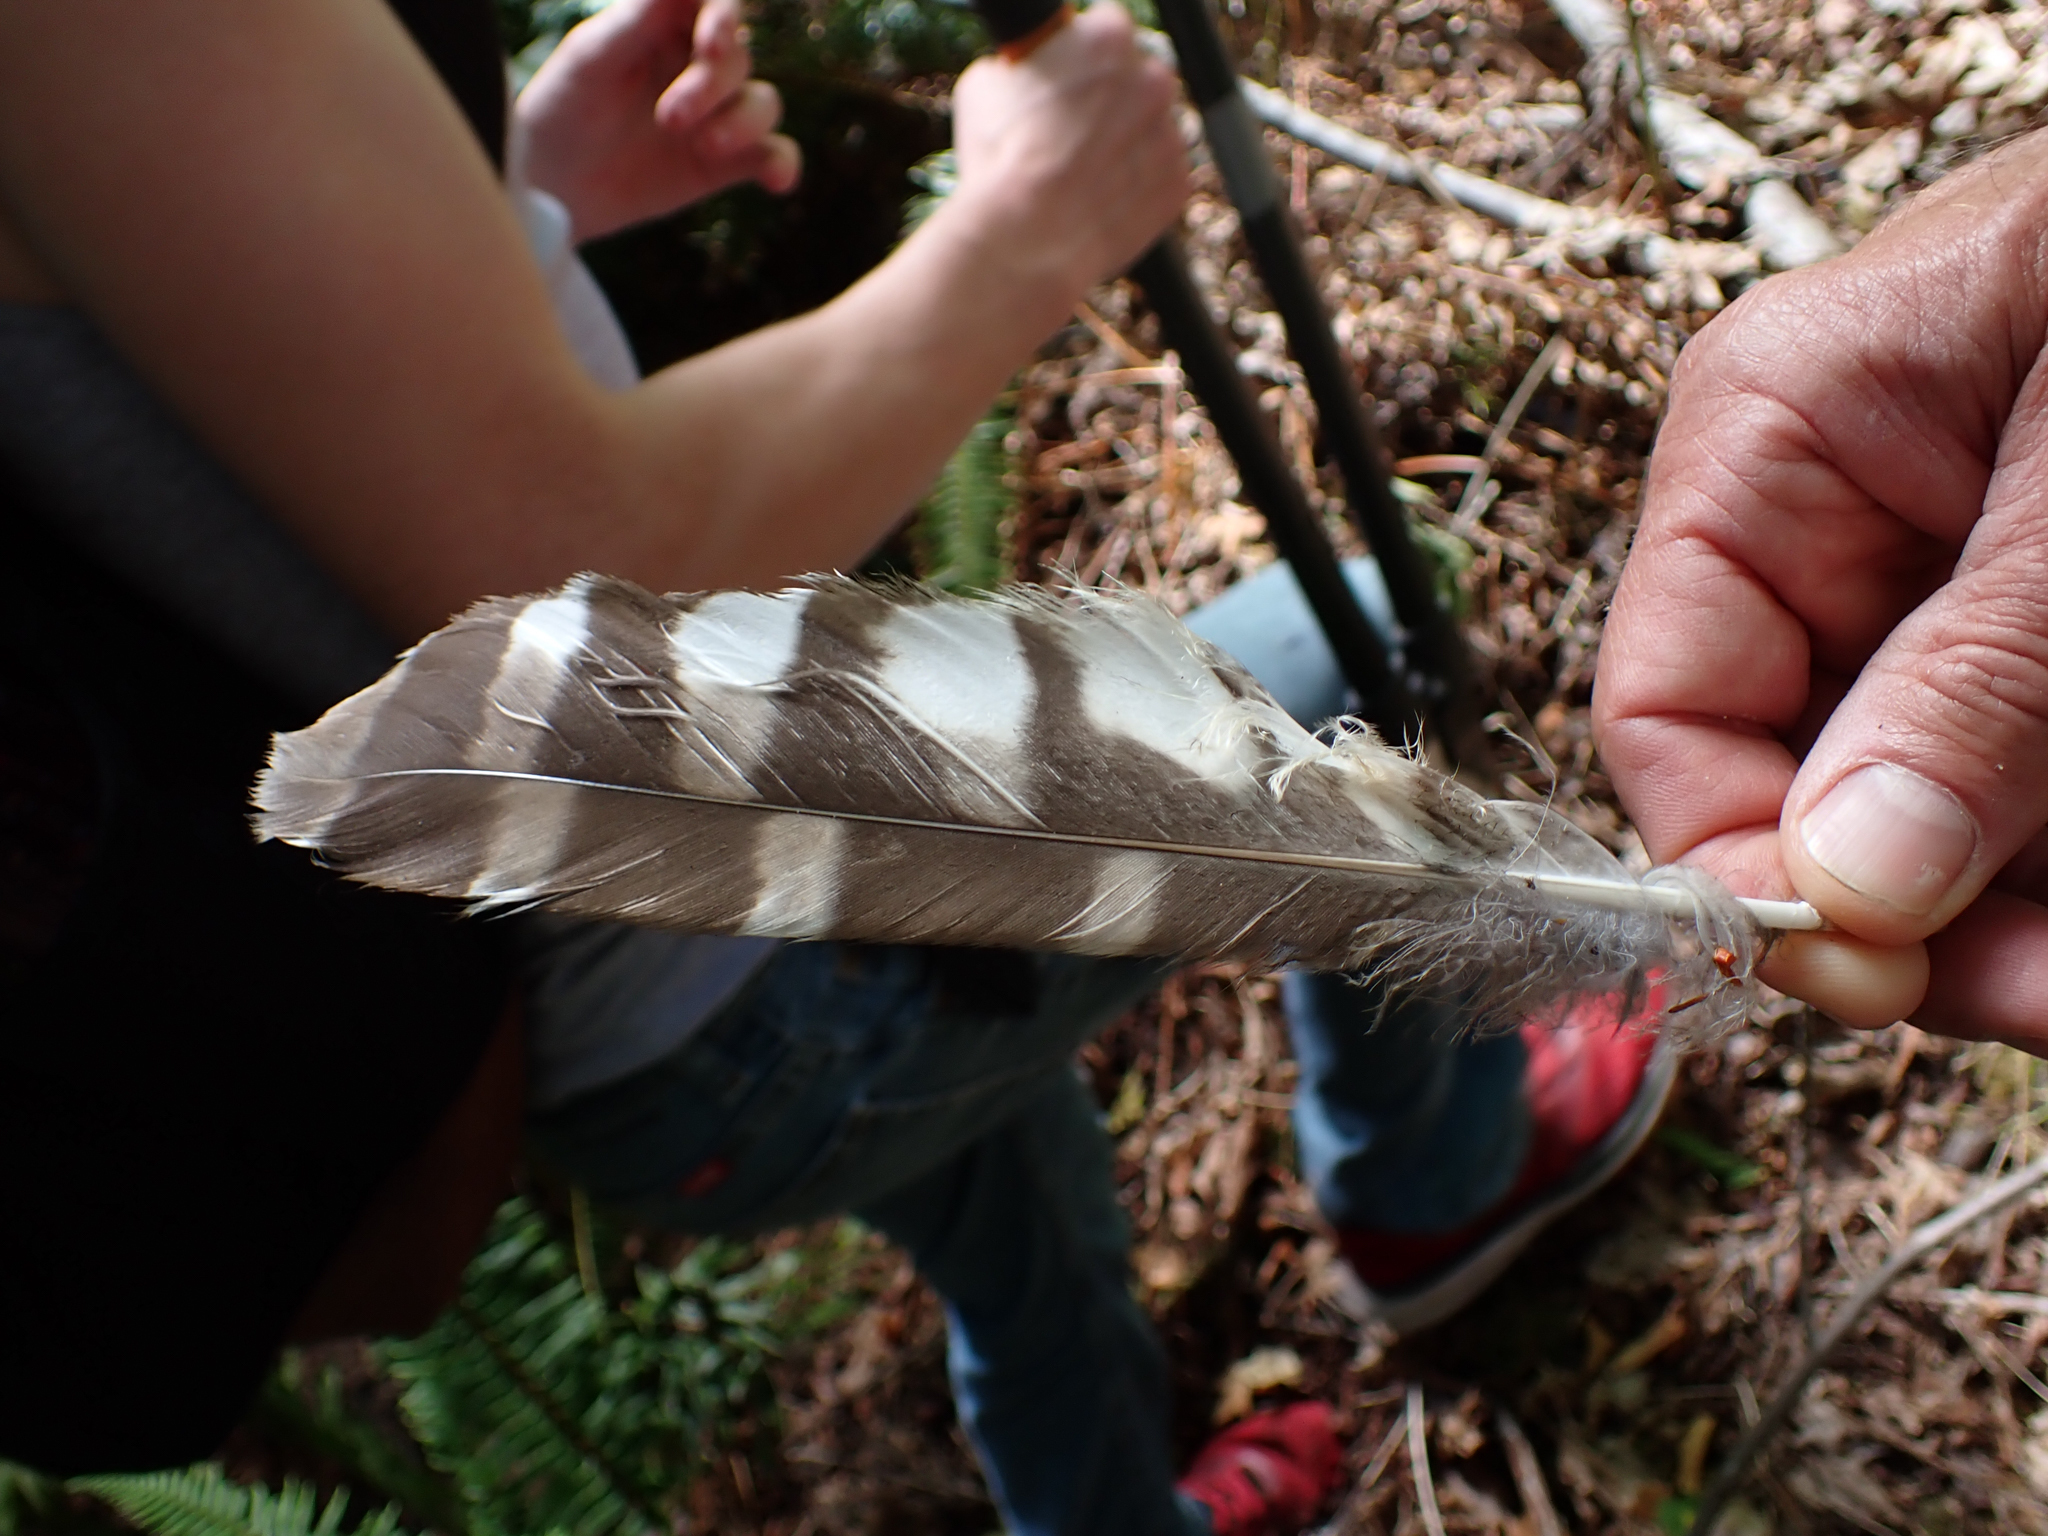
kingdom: Animalia
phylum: Chordata
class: Aves
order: Strigiformes
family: Strigidae
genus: Strix
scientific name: Strix varia
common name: Barred owl
